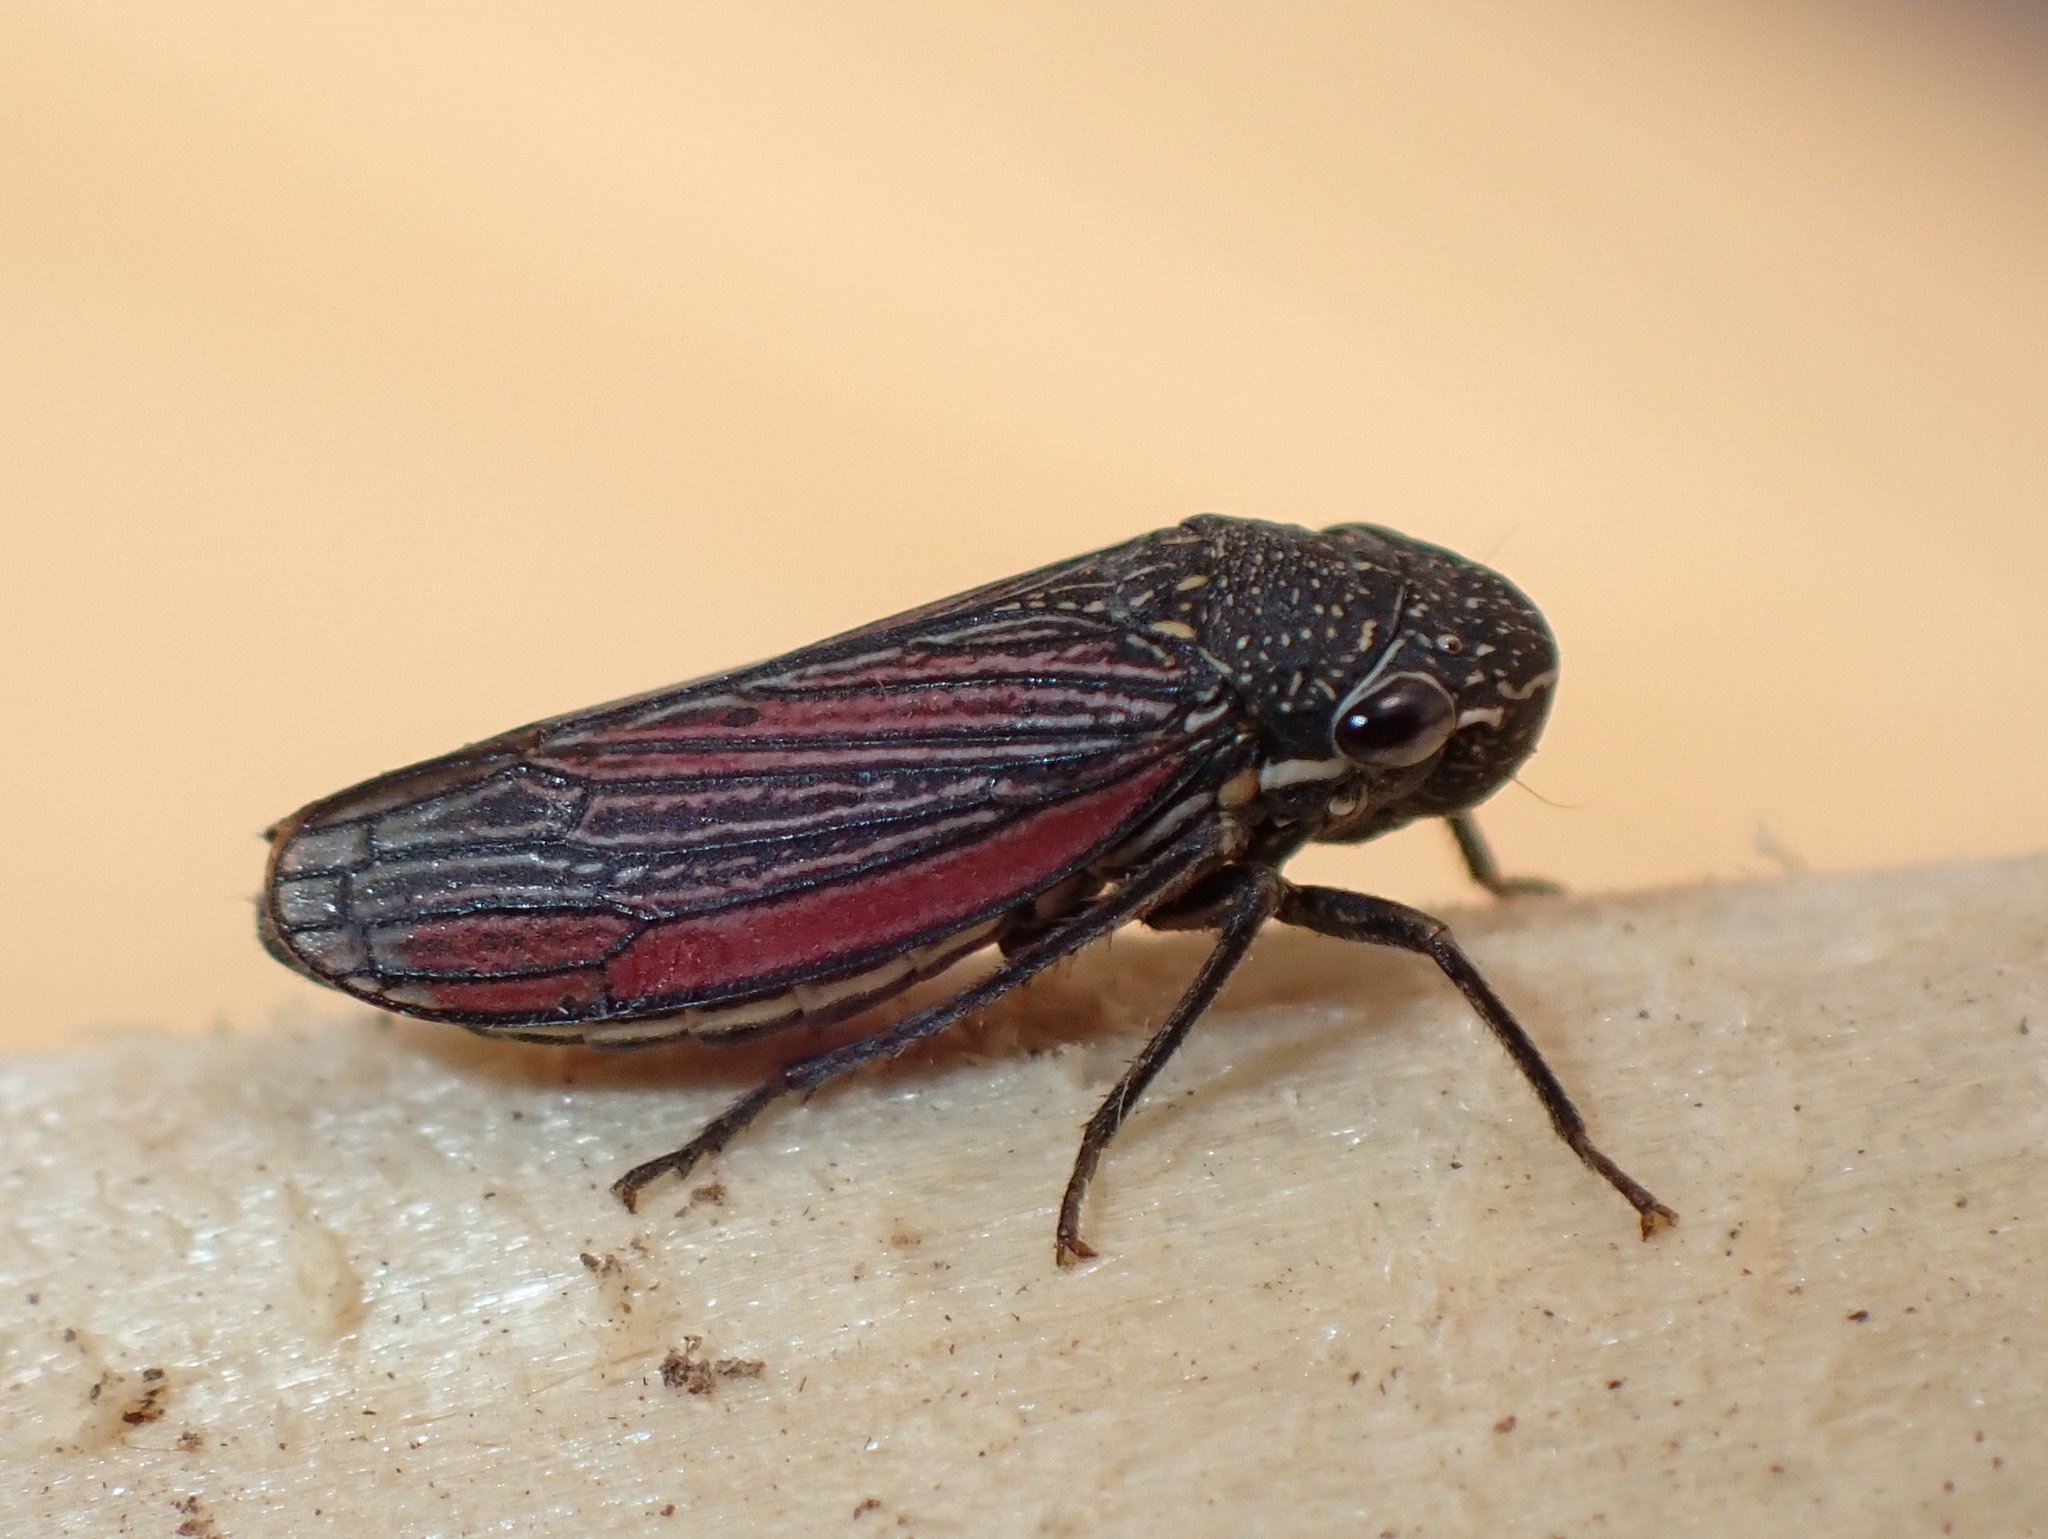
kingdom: Animalia
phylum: Arthropoda
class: Insecta
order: Hemiptera
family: Cicadellidae
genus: Cuerna
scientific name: Cuerna striata
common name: Striped leafhopper
